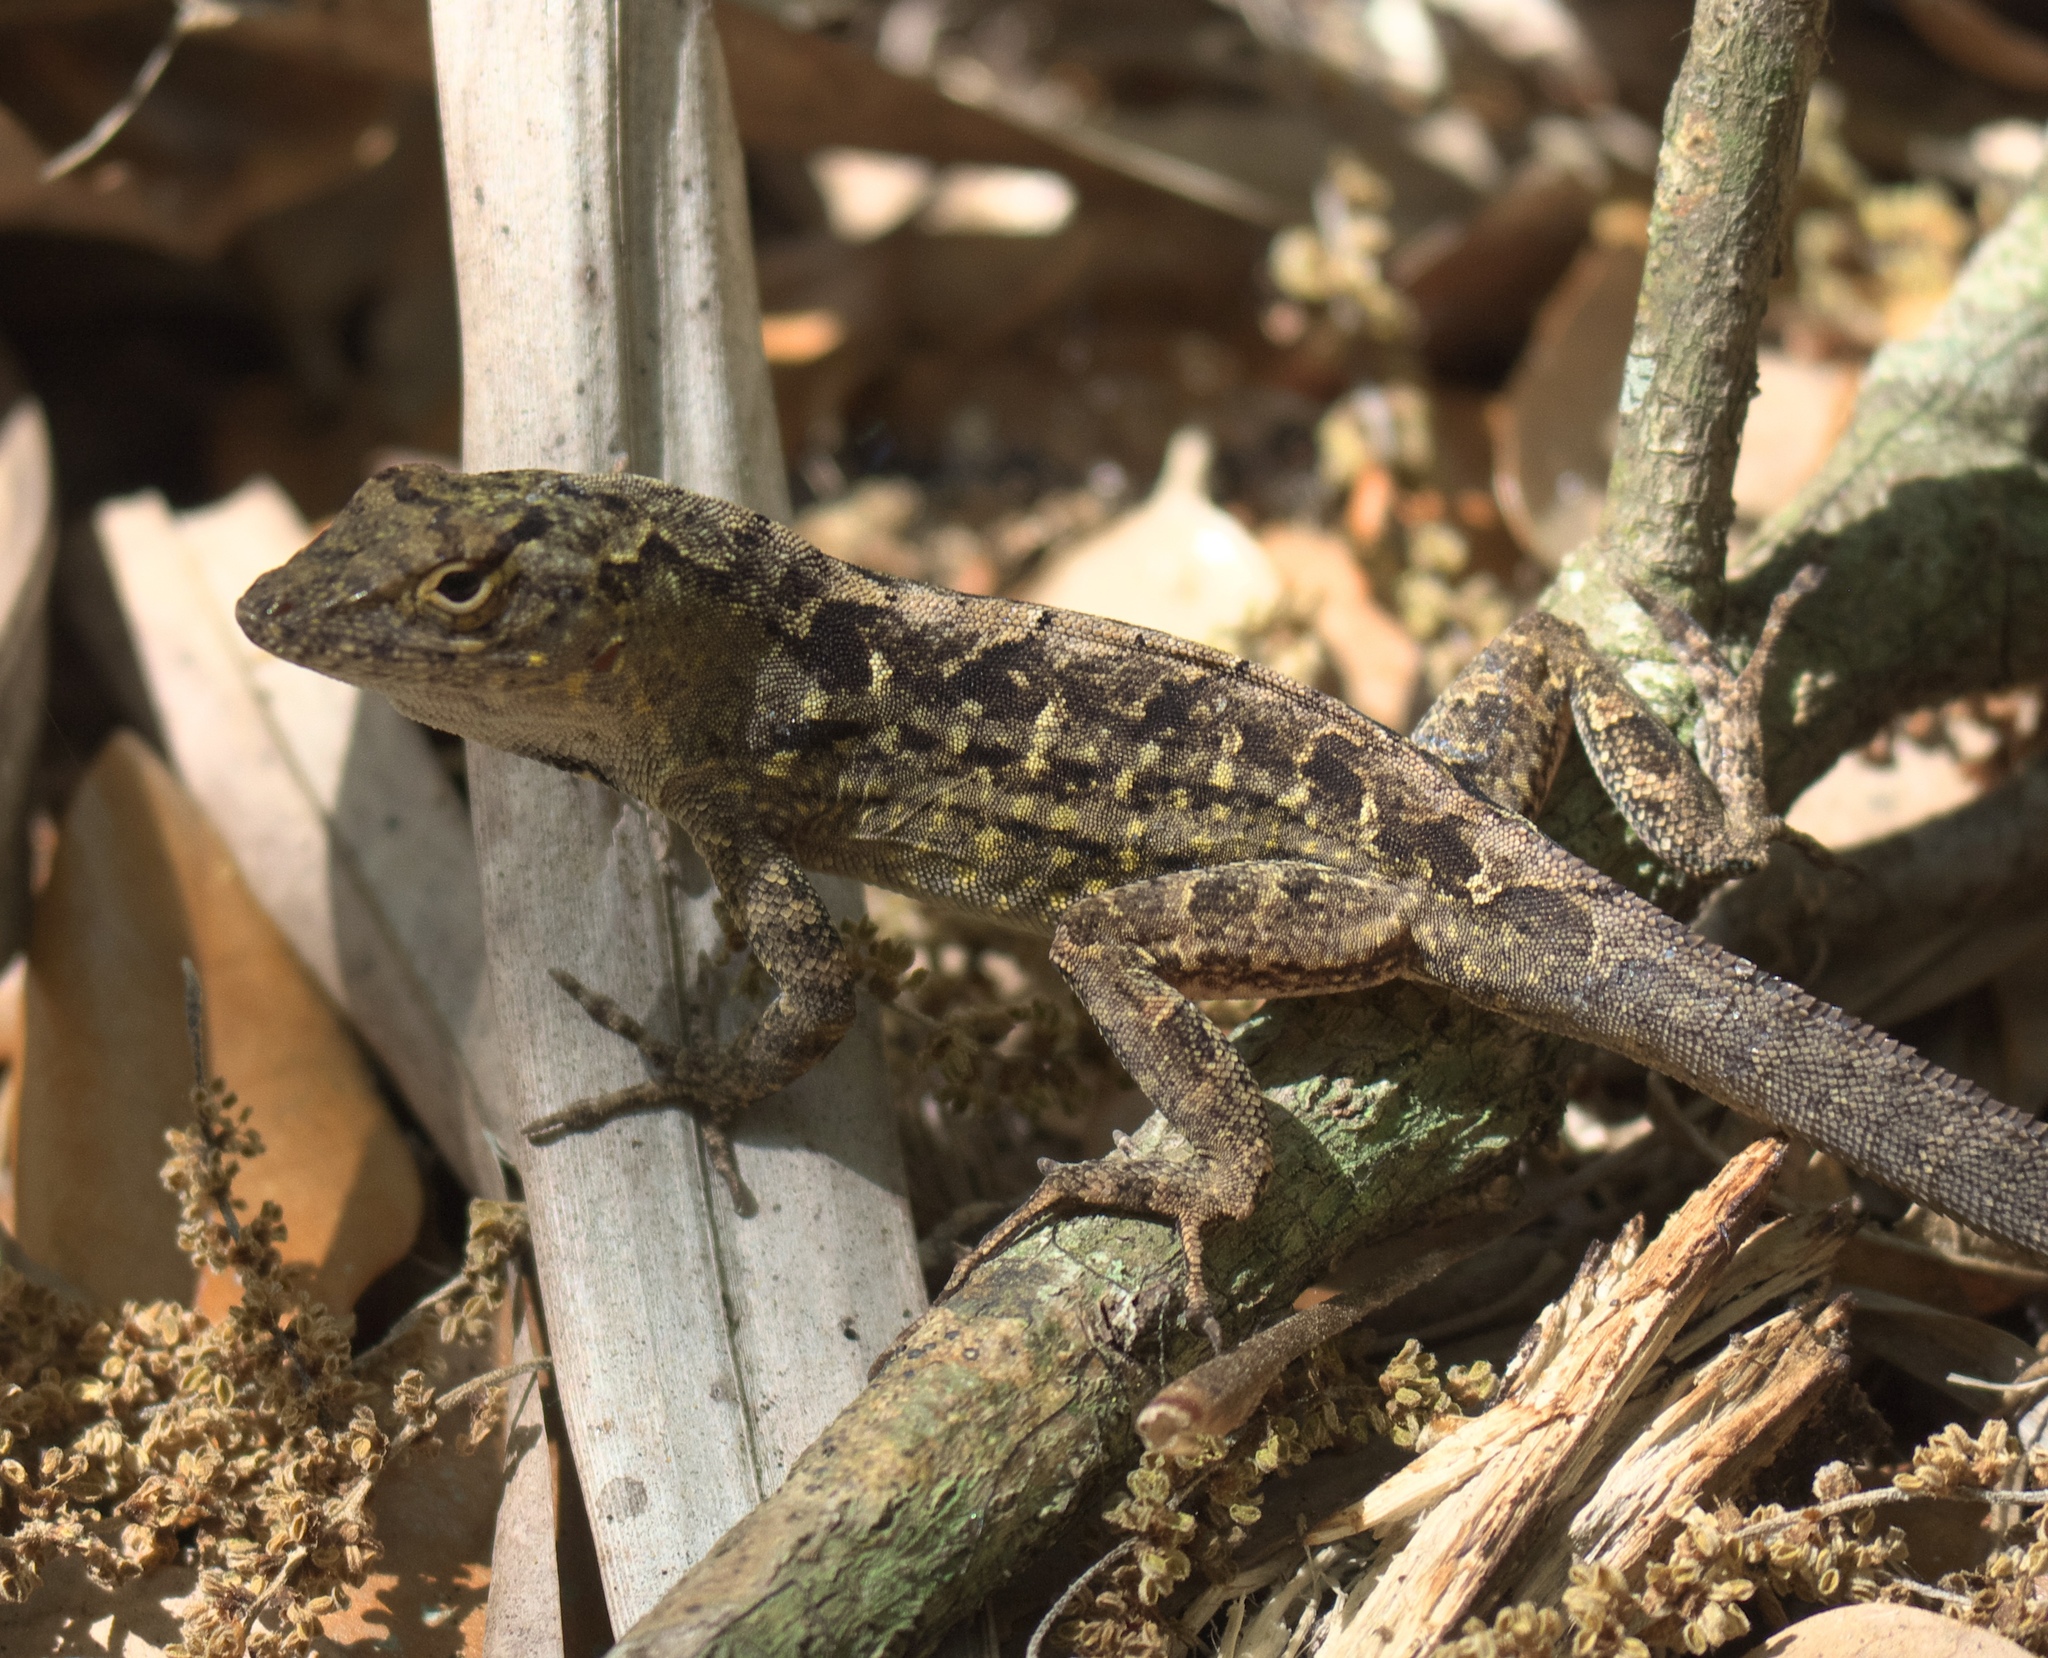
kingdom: Animalia
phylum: Chordata
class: Squamata
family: Dactyloidae
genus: Anolis
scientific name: Anolis sagrei
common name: Brown anole
